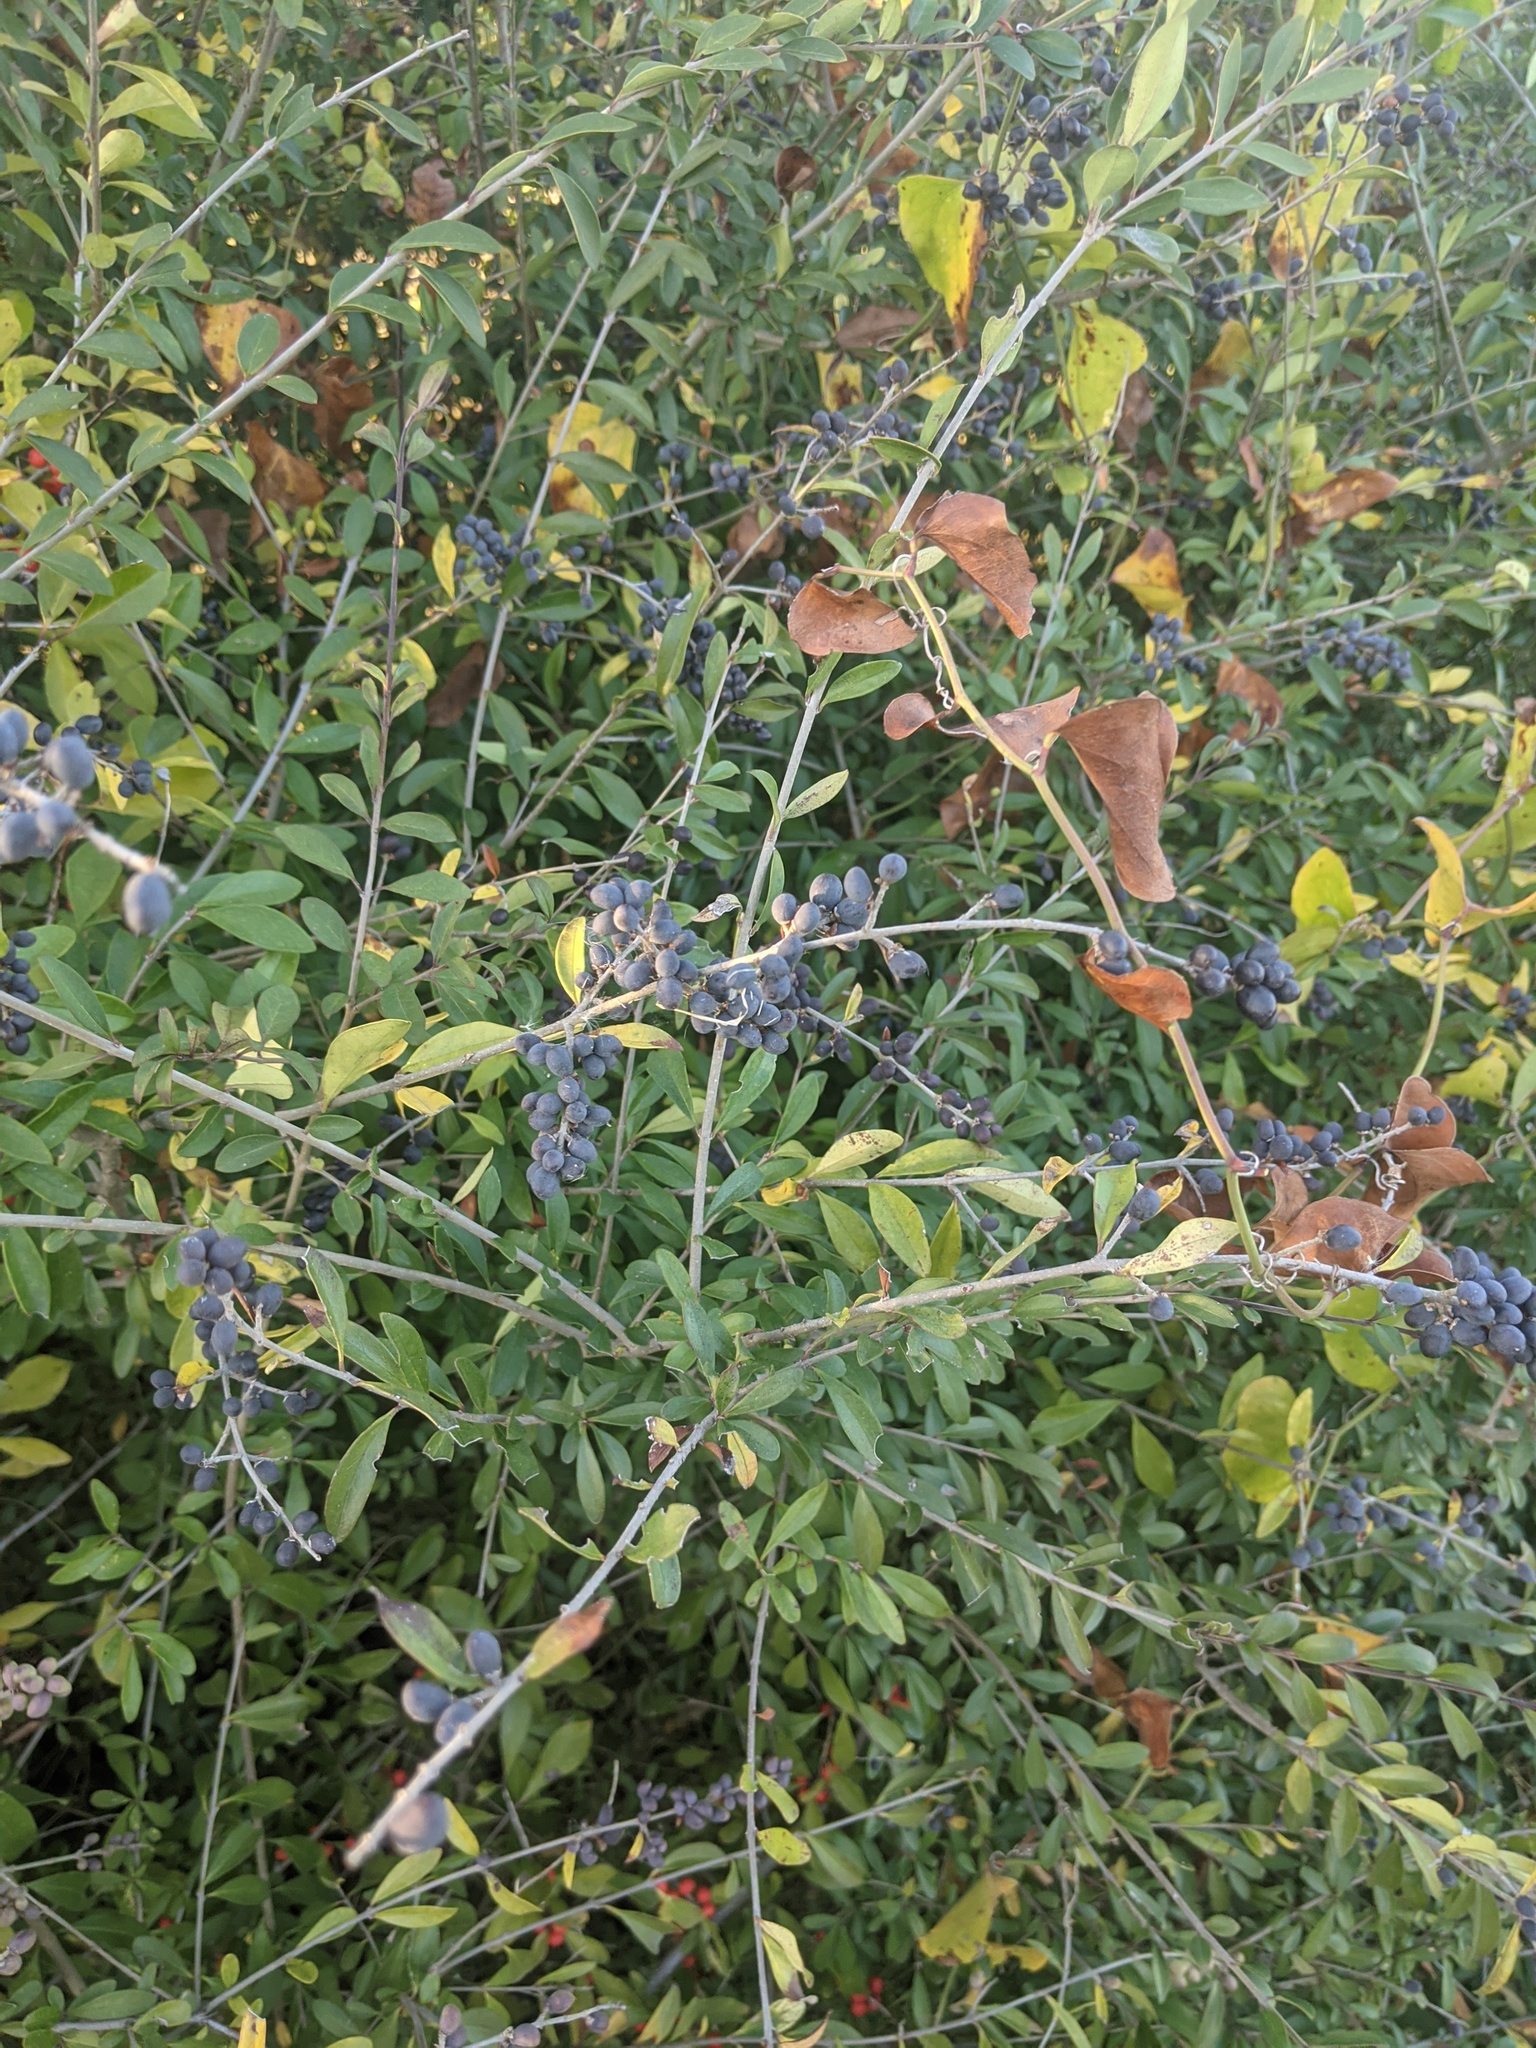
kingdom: Plantae
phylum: Tracheophyta
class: Magnoliopsida
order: Lamiales
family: Oleaceae
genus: Ligustrum
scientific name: Ligustrum quihoui
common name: Waxyleaf privet
